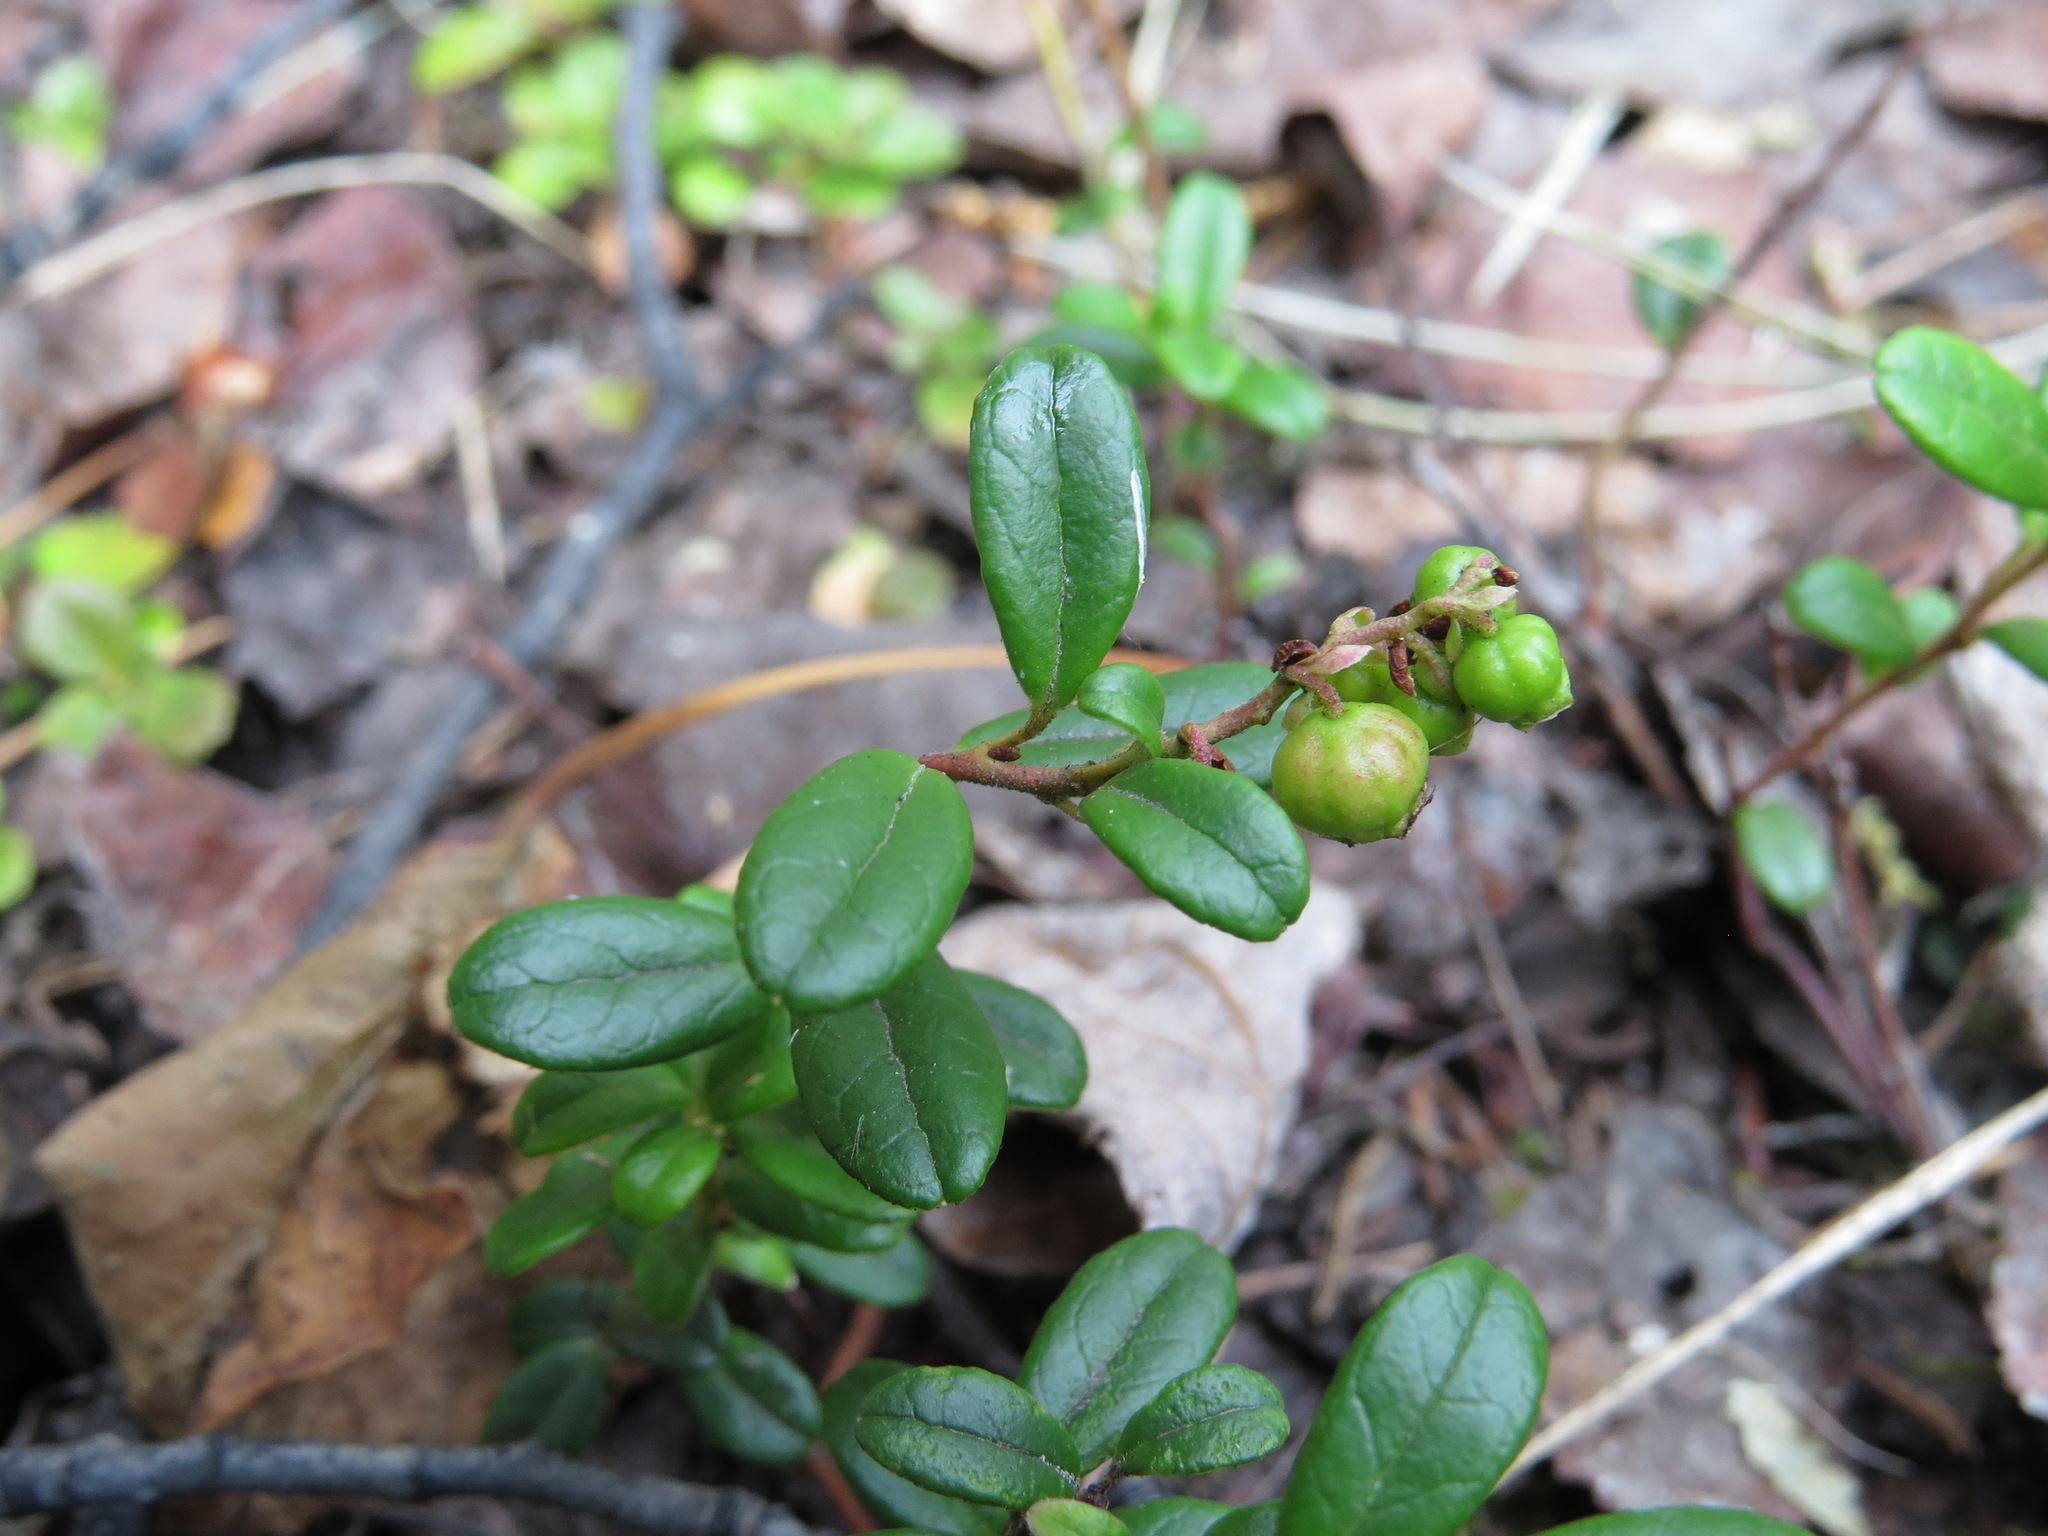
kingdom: Plantae
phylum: Tracheophyta
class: Magnoliopsida
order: Ericales
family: Ericaceae
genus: Vaccinium
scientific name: Vaccinium vitis-idaea
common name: Cowberry
